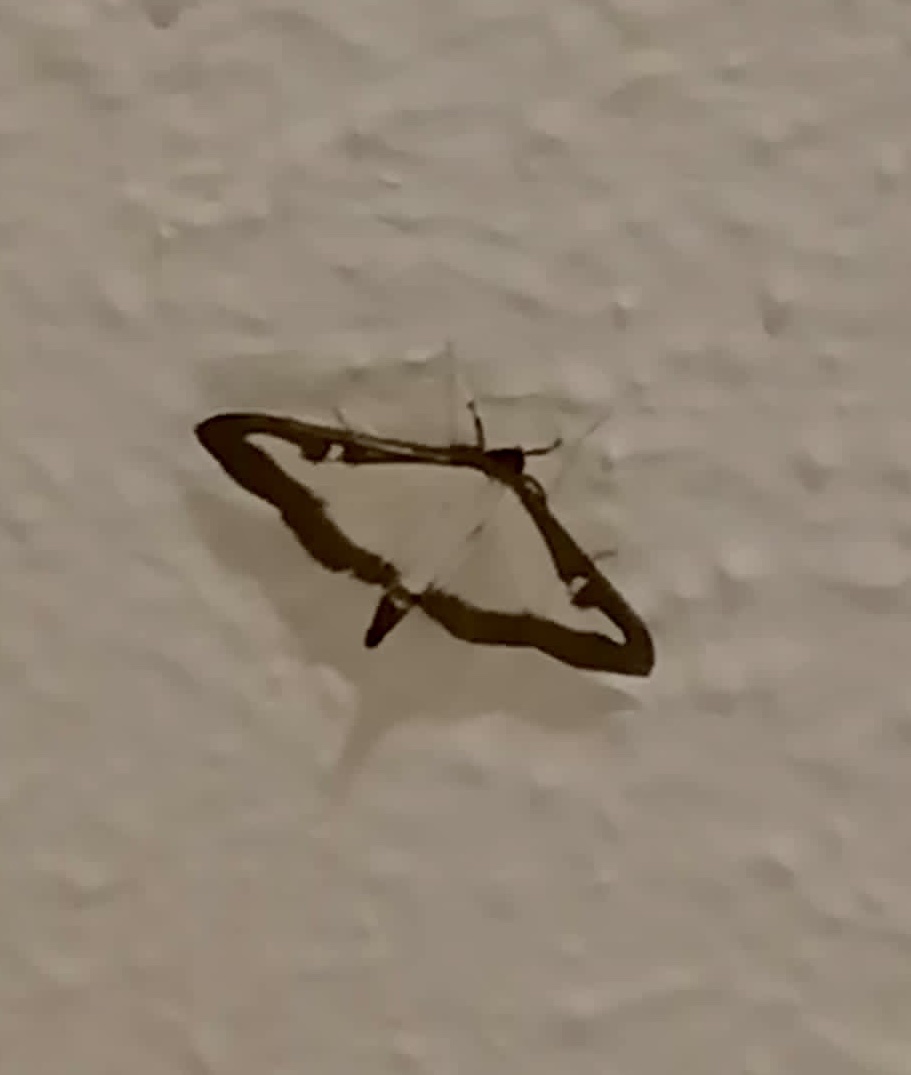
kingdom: Animalia
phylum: Arthropoda
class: Insecta
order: Lepidoptera
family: Crambidae
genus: Cydalima
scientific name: Cydalima perspectalis
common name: Box tree moth
